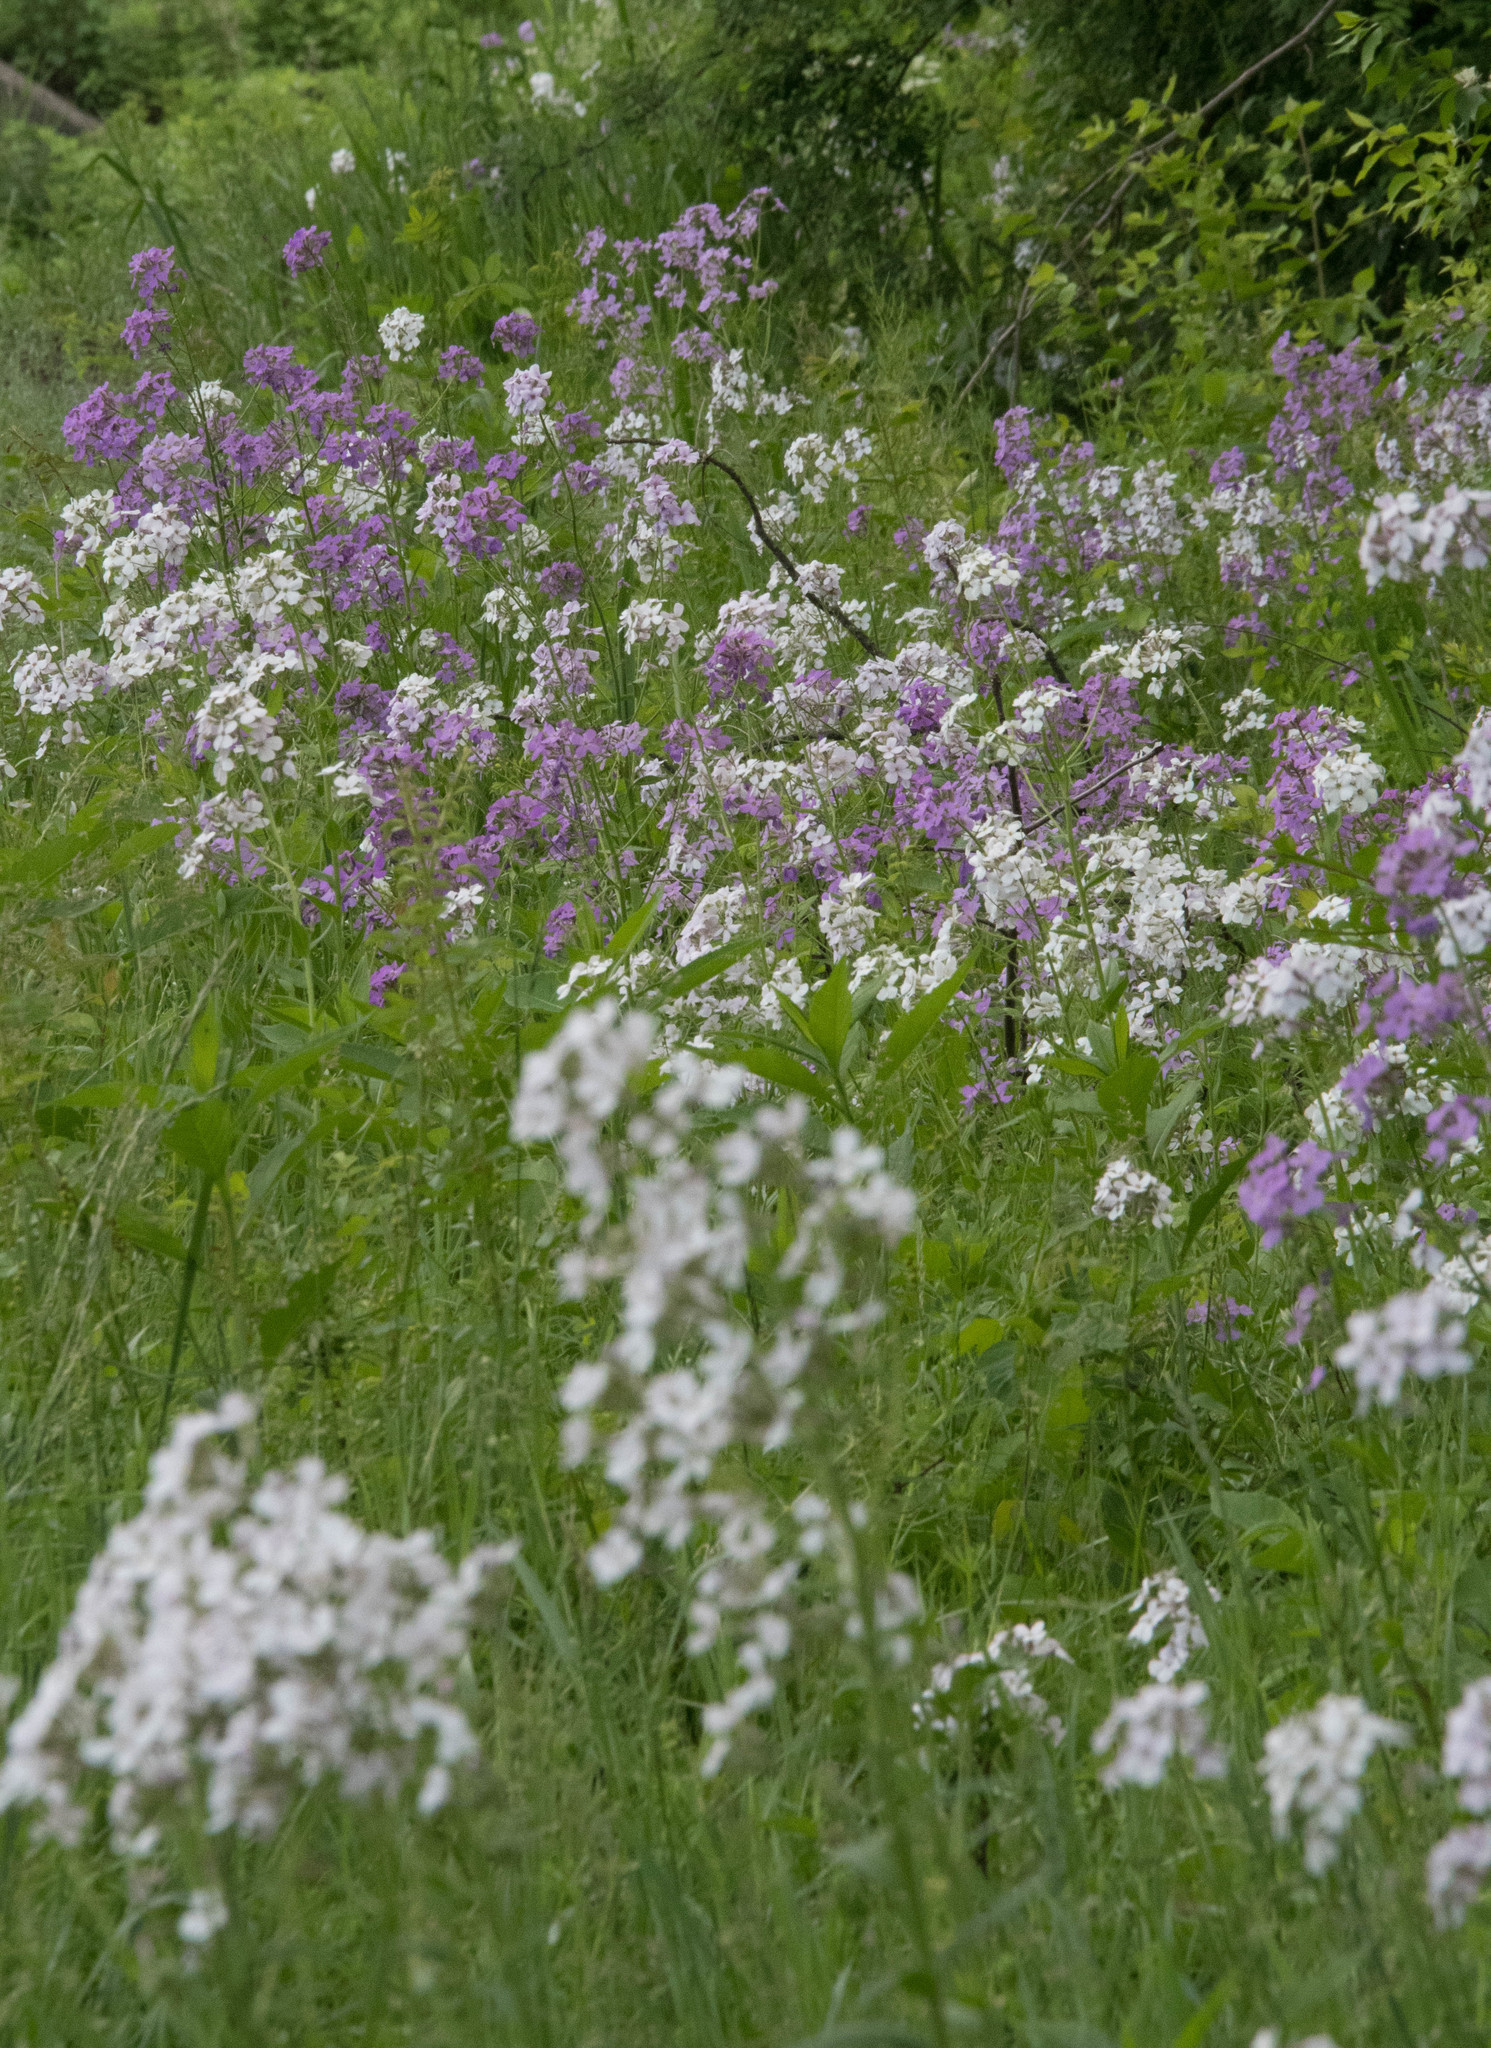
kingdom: Plantae
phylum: Tracheophyta
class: Magnoliopsida
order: Brassicales
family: Brassicaceae
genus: Hesperis
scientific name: Hesperis matronalis
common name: Dame's-violet
